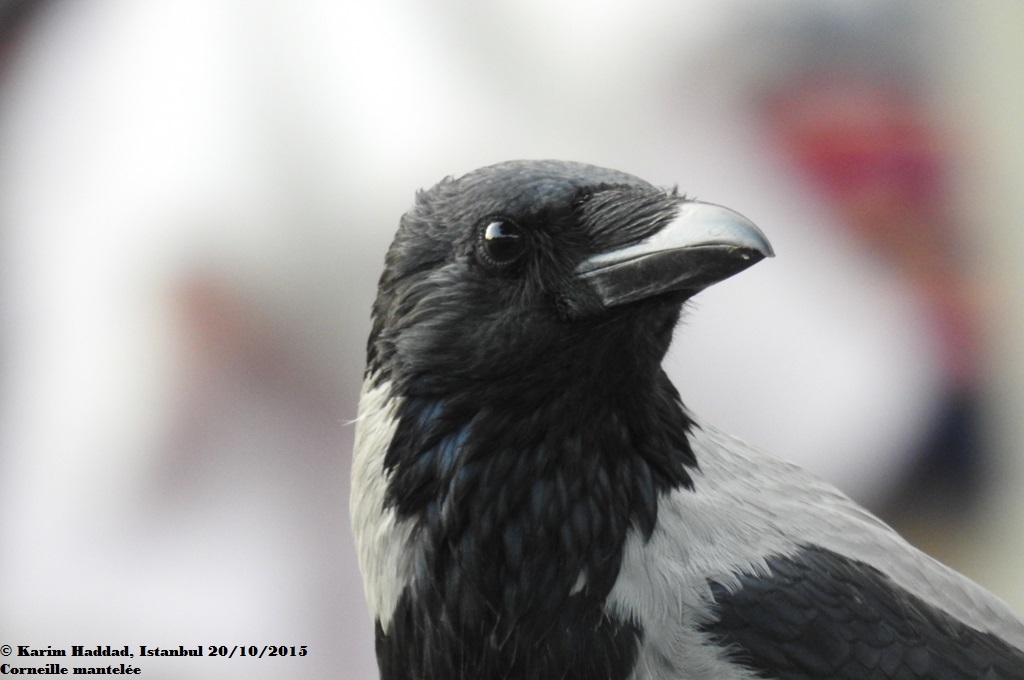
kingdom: Animalia
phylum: Chordata
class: Aves
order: Passeriformes
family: Corvidae
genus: Corvus
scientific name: Corvus cornix
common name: Hooded crow
